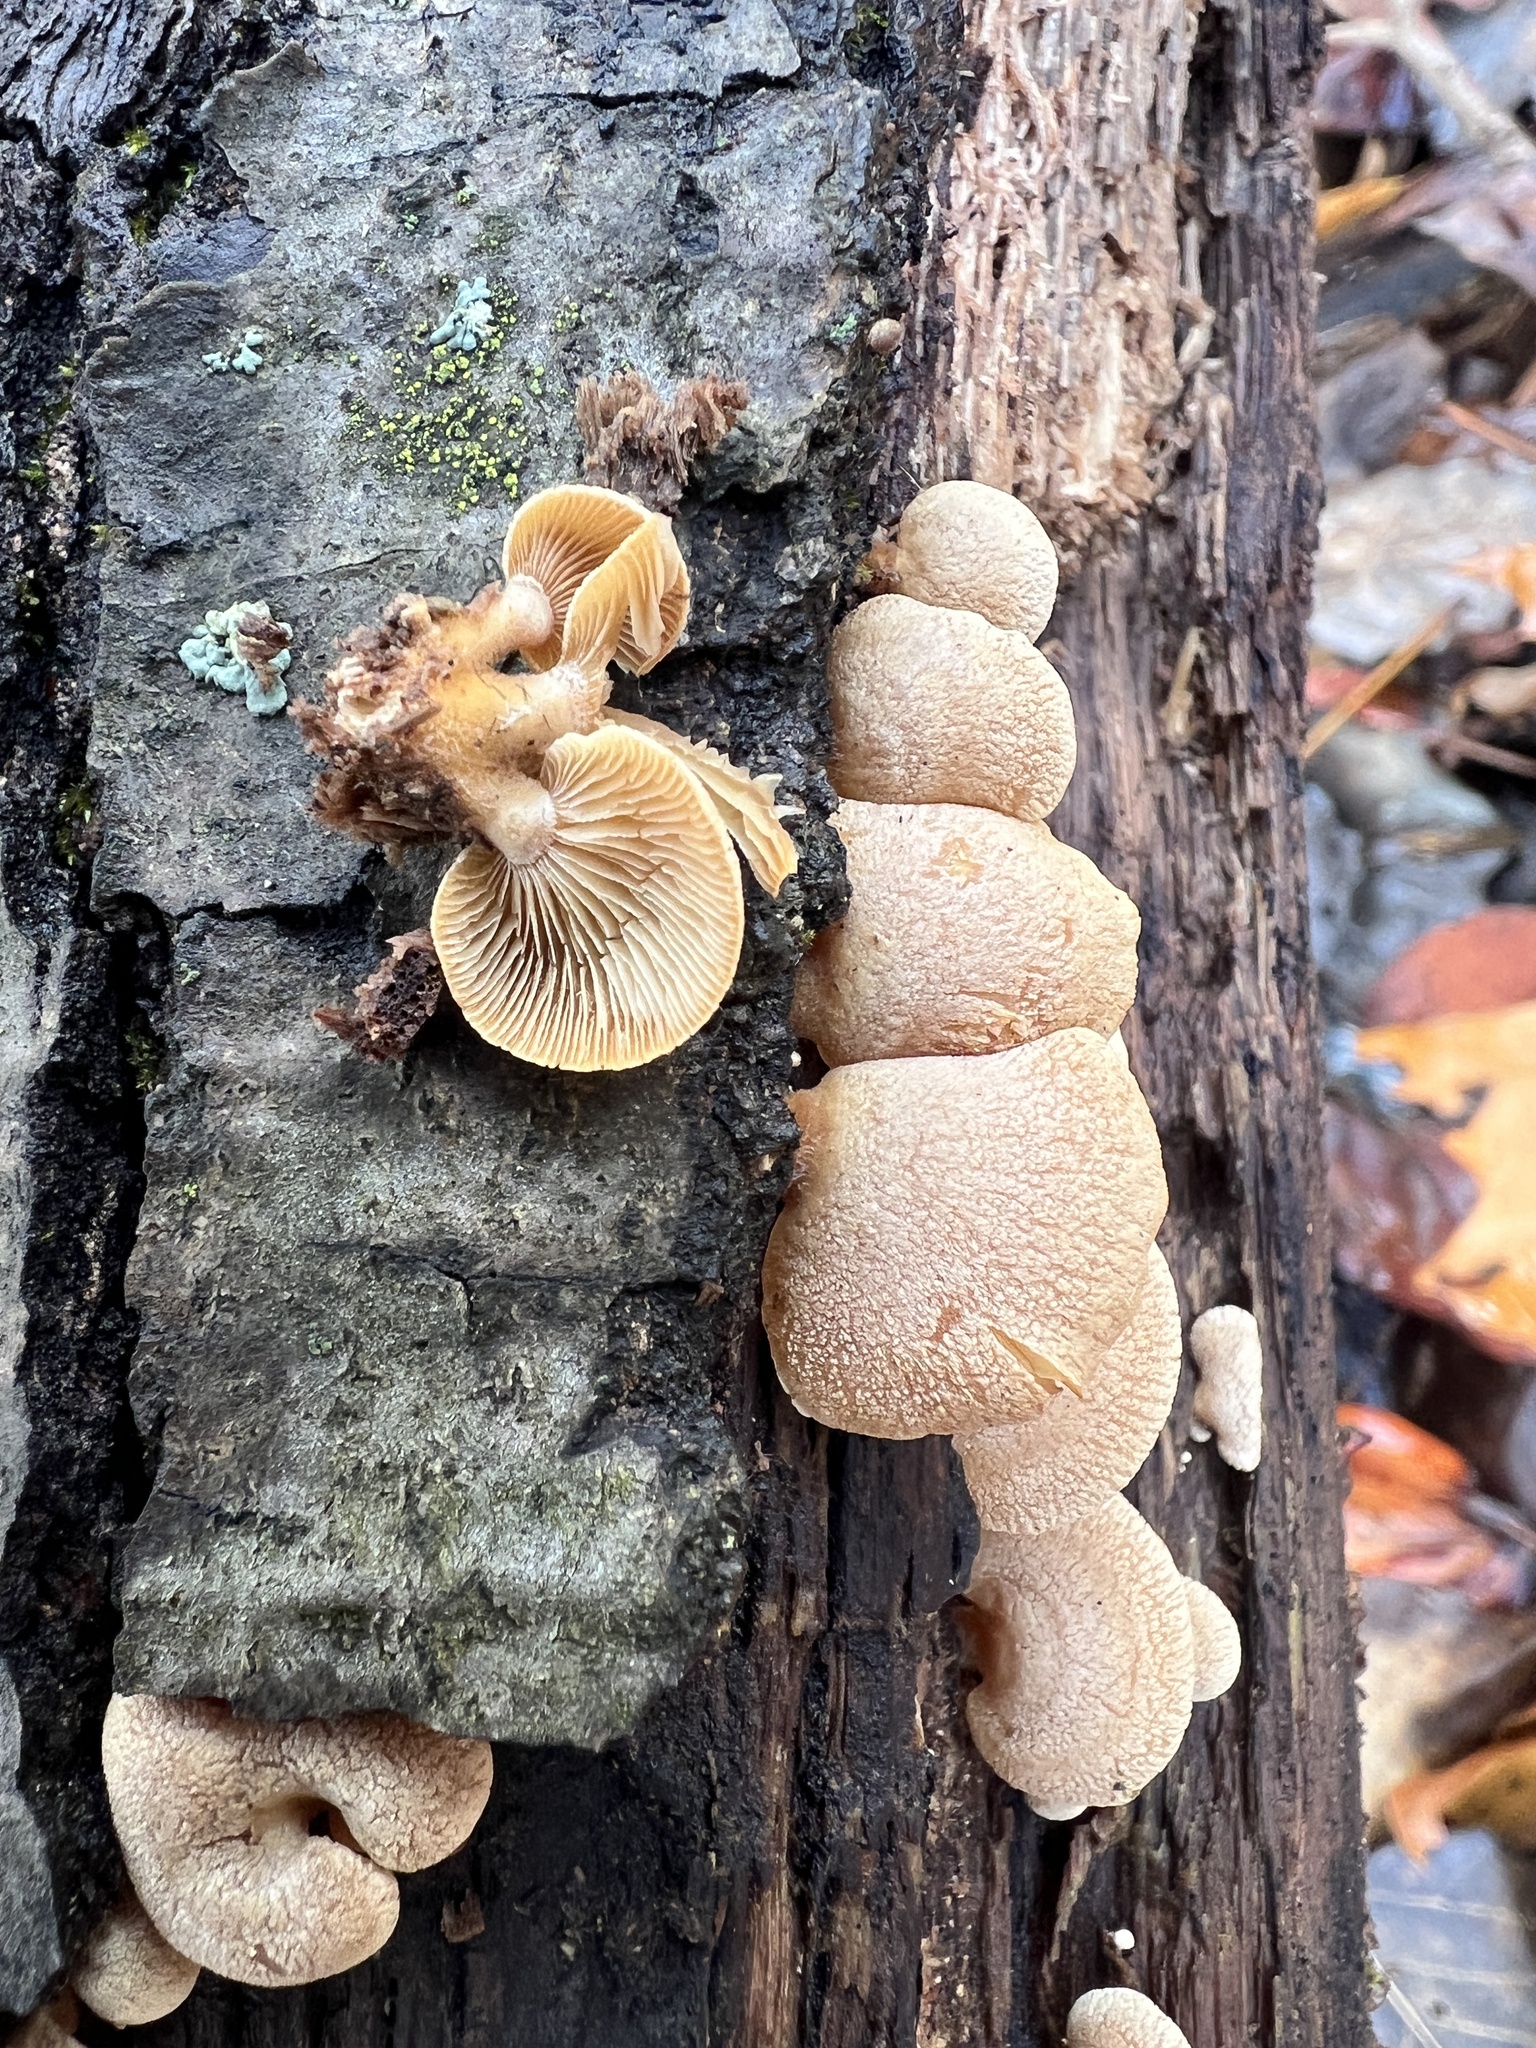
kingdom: Fungi
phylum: Basidiomycota
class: Agaricomycetes
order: Agaricales
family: Mycenaceae
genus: Panellus
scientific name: Panellus stipticus
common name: Bitter oysterling
